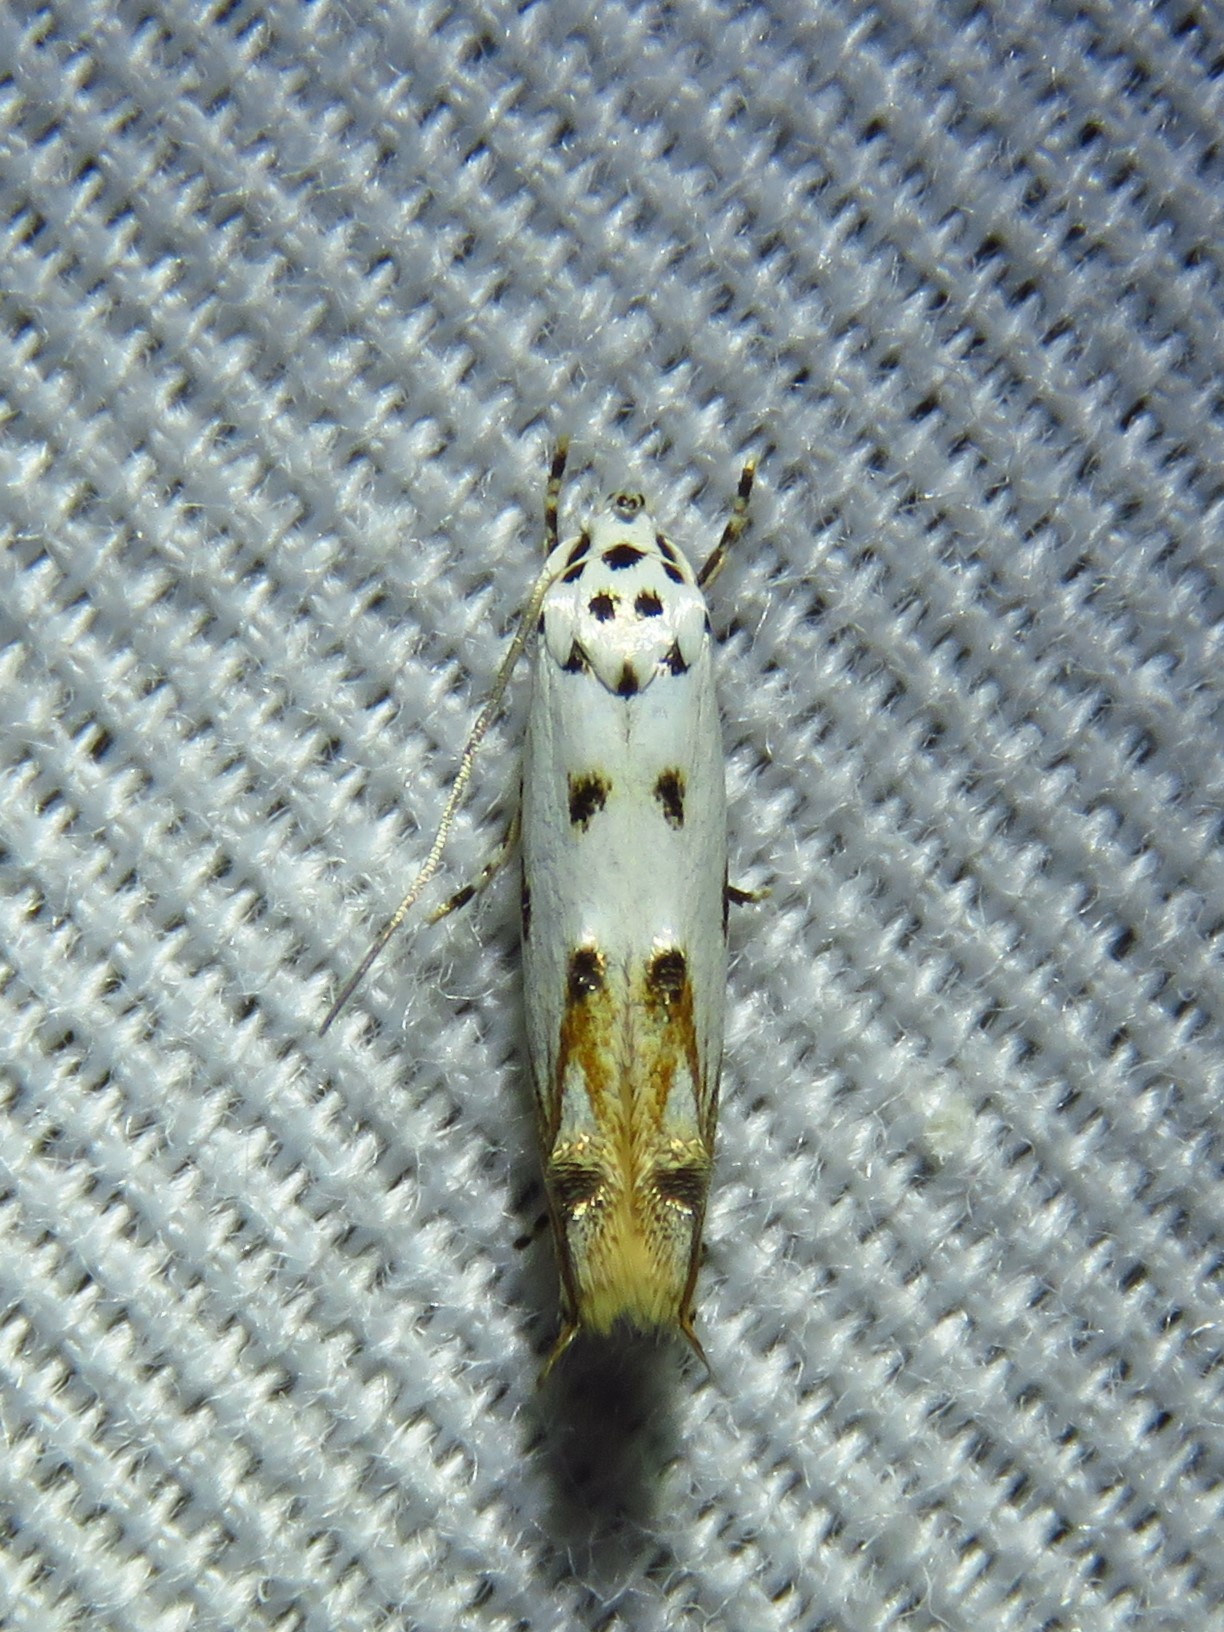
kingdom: Animalia
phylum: Arthropoda
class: Insecta
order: Lepidoptera
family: Momphidae
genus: Mompha
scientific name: Mompha eloisella
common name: Red-streaked mompha moth
